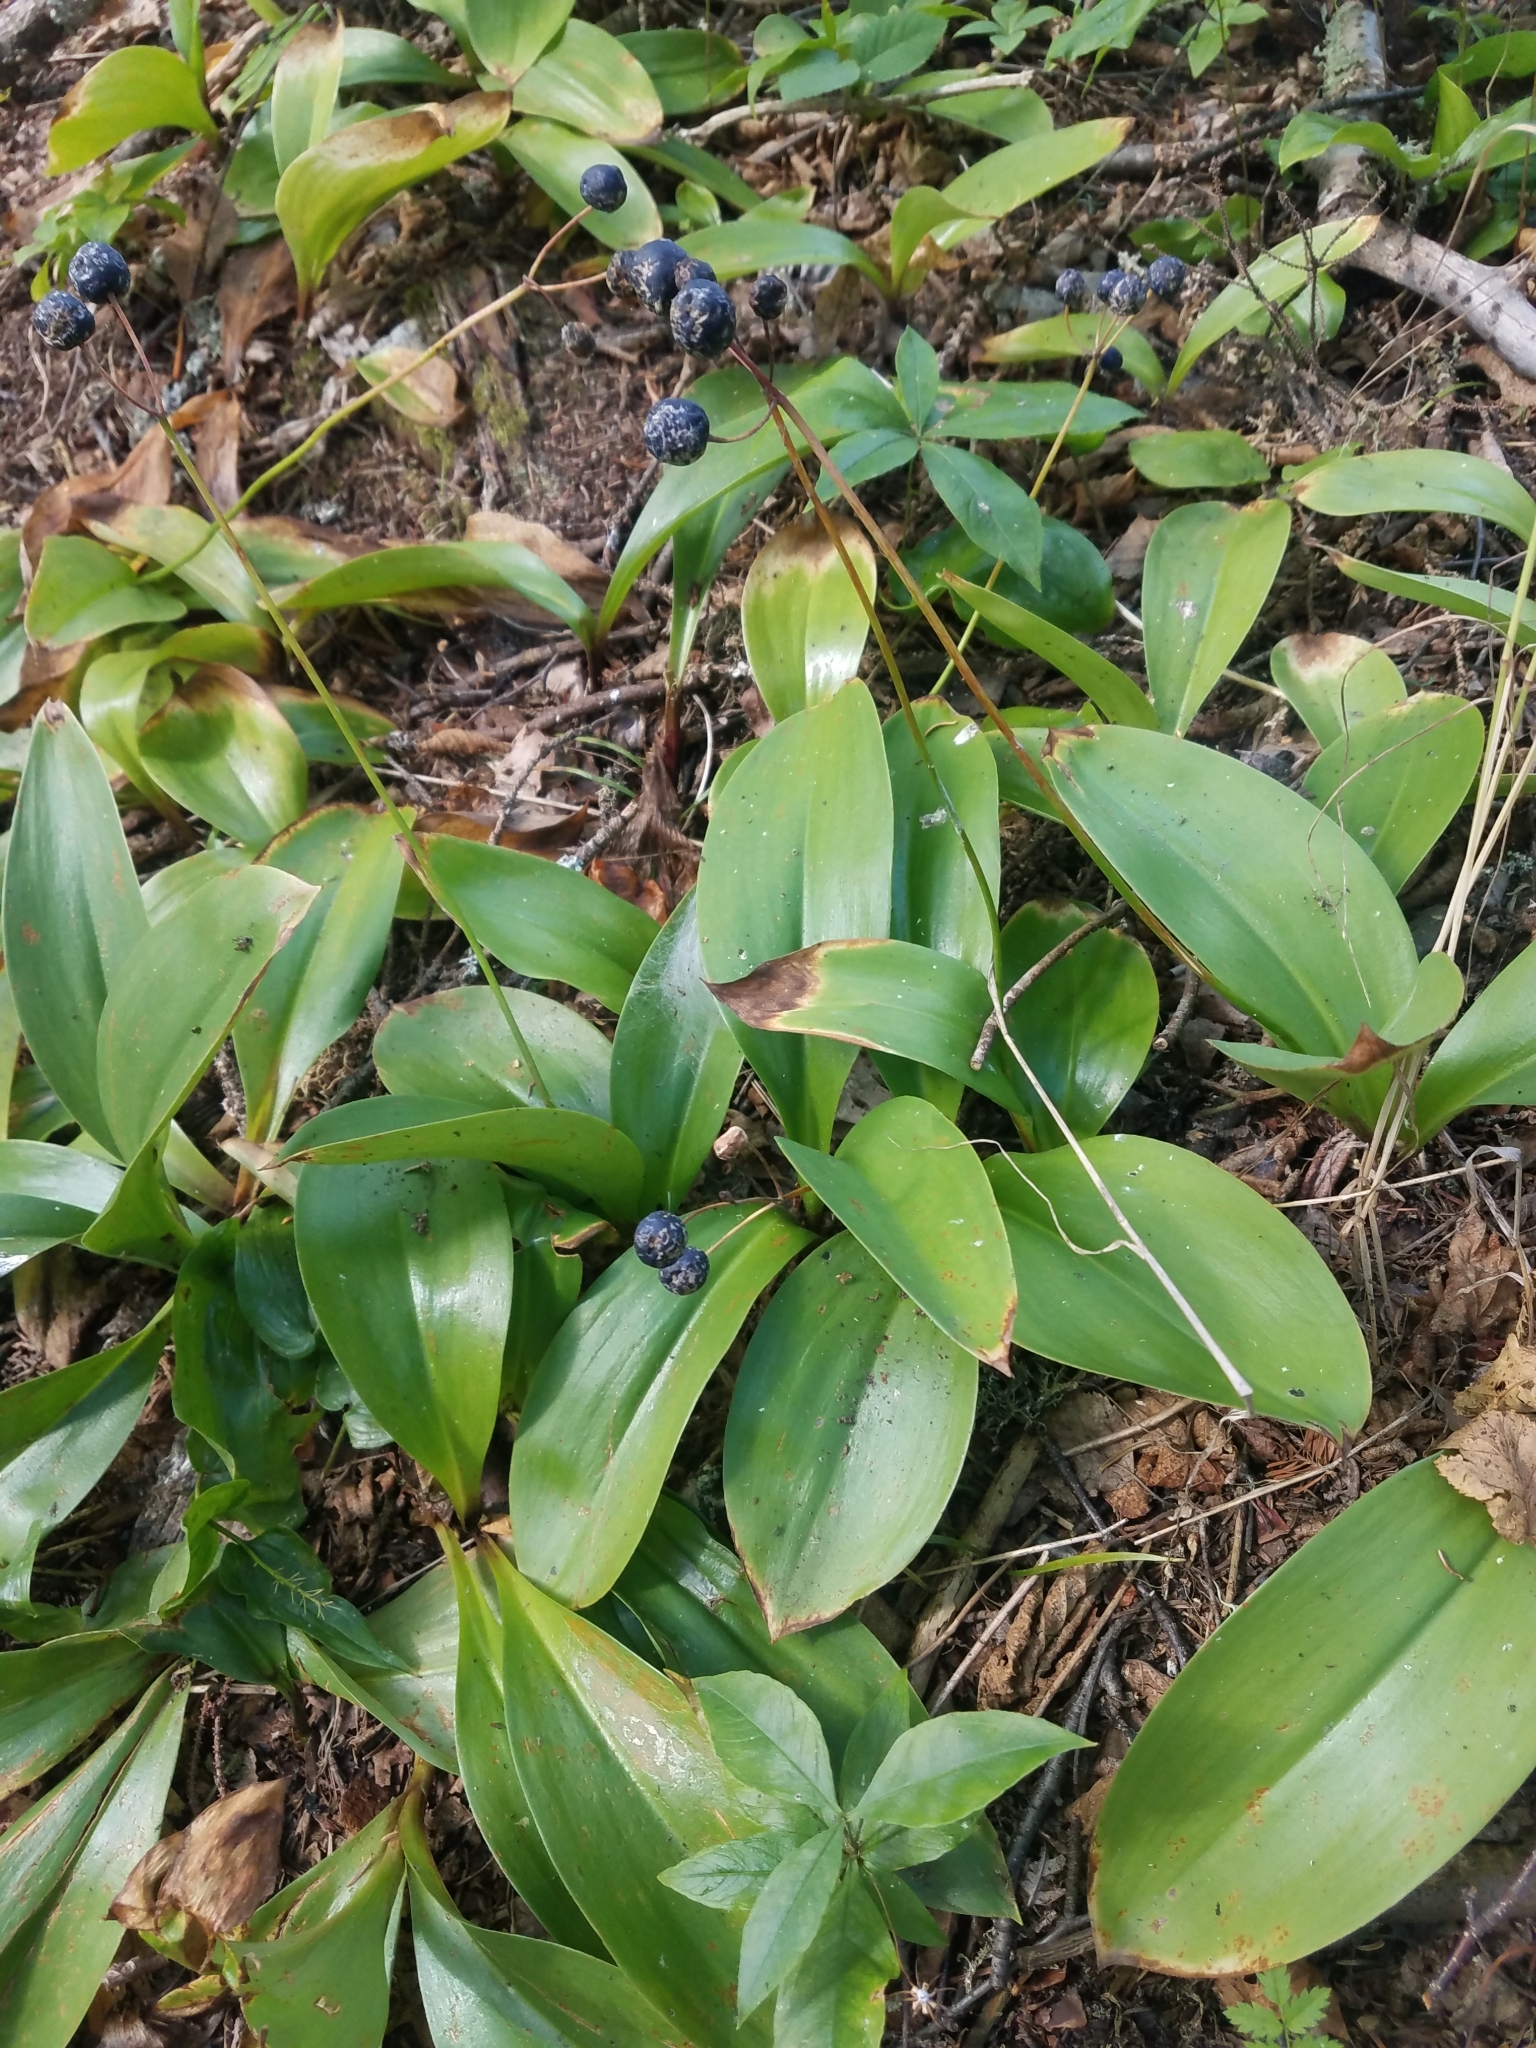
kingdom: Plantae
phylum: Tracheophyta
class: Liliopsida
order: Liliales
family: Liliaceae
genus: Clintonia
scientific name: Clintonia borealis
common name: Yellow clintonia
